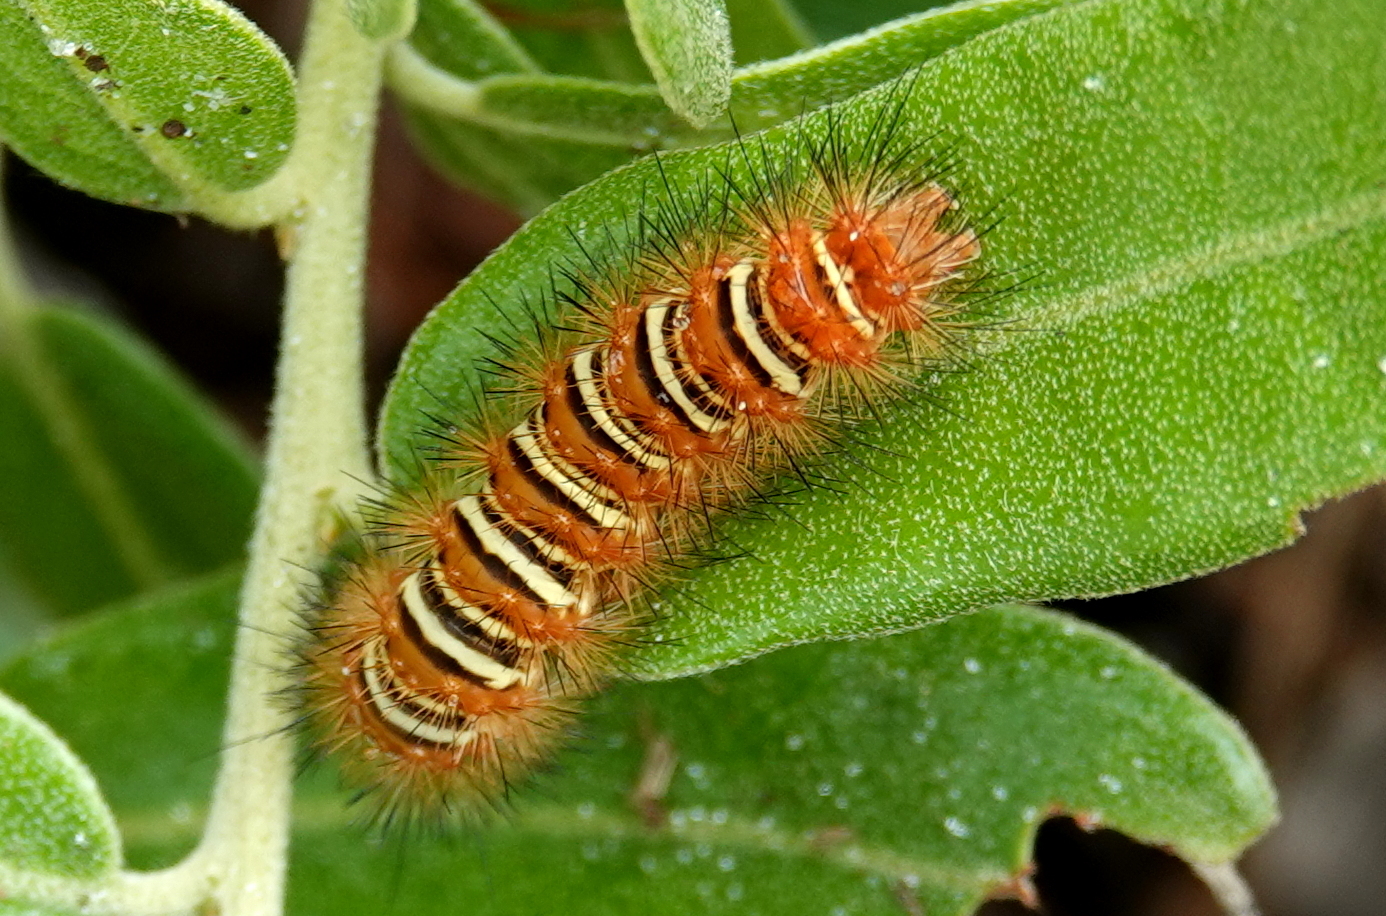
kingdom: Animalia
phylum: Arthropoda
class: Insecta
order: Lepidoptera
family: Erebidae
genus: Seirarctia
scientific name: Seirarctia echo
